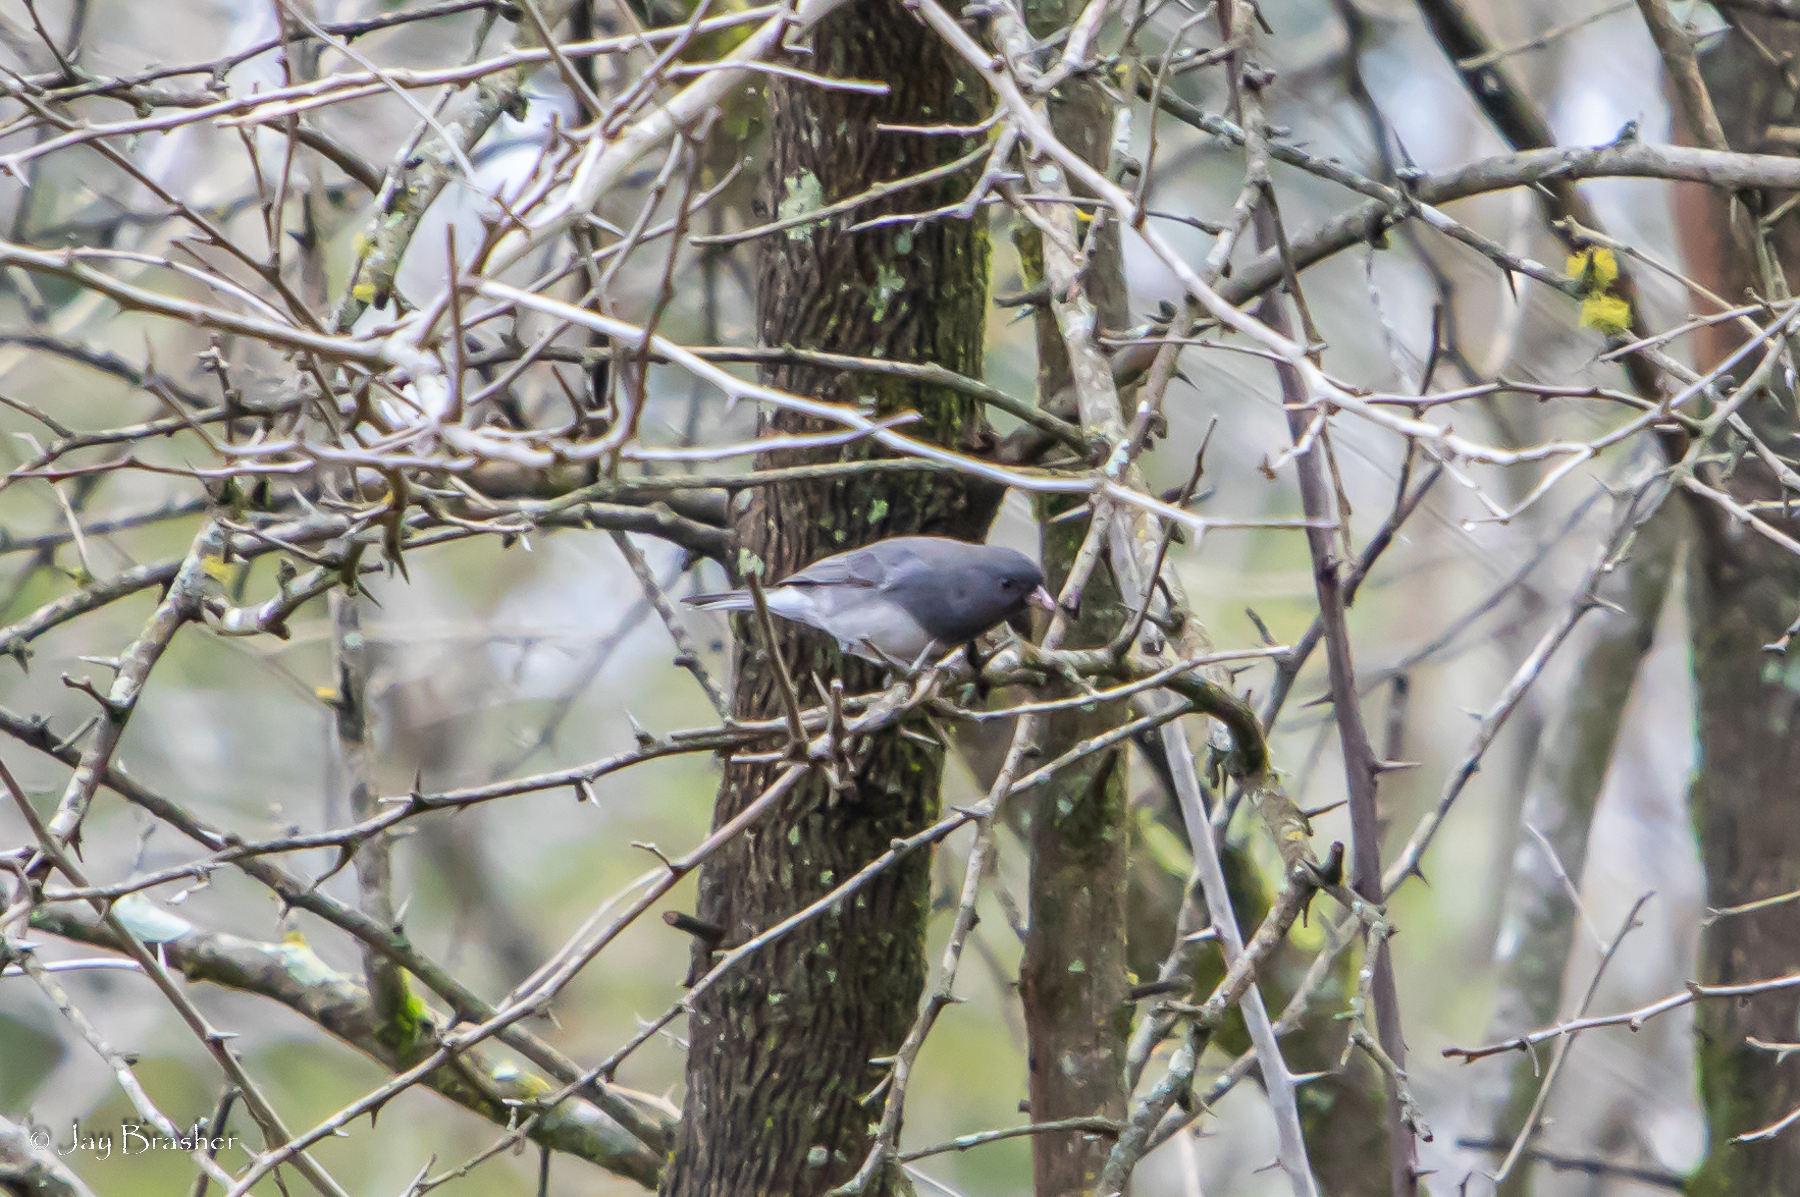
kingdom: Animalia
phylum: Chordata
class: Aves
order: Passeriformes
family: Passerellidae
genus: Junco
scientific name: Junco hyemalis
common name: Dark-eyed junco
